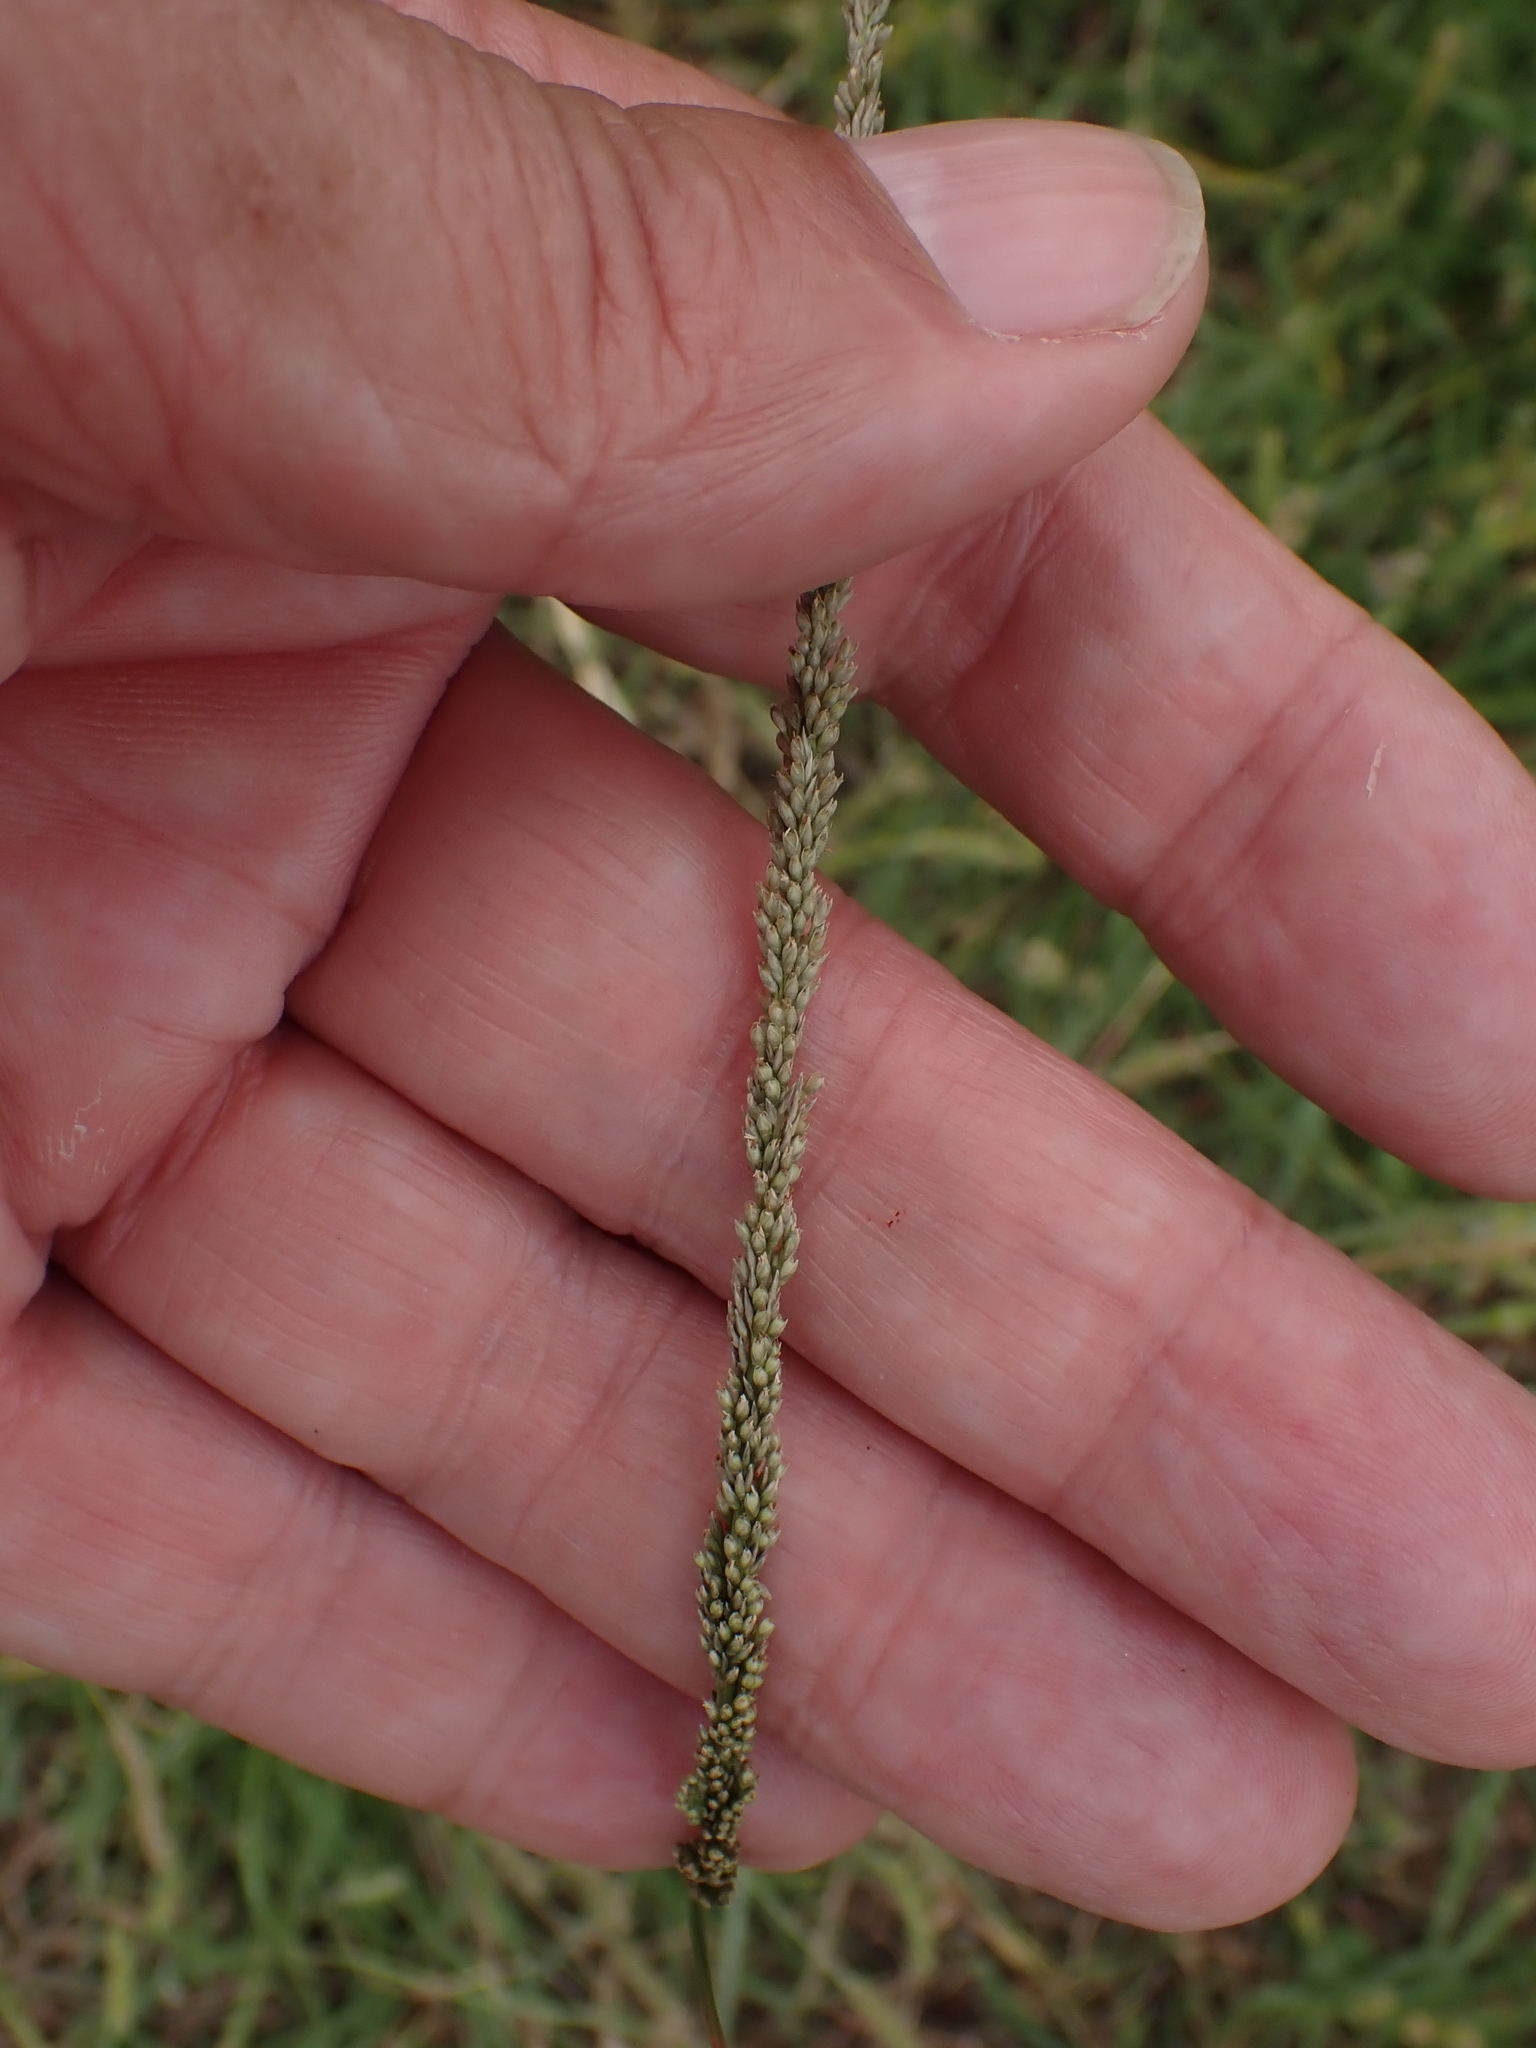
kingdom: Plantae
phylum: Tracheophyta
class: Liliopsida
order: Poales
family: Poaceae
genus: Sporobolus
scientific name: Sporobolus indicus
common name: Smut grass
